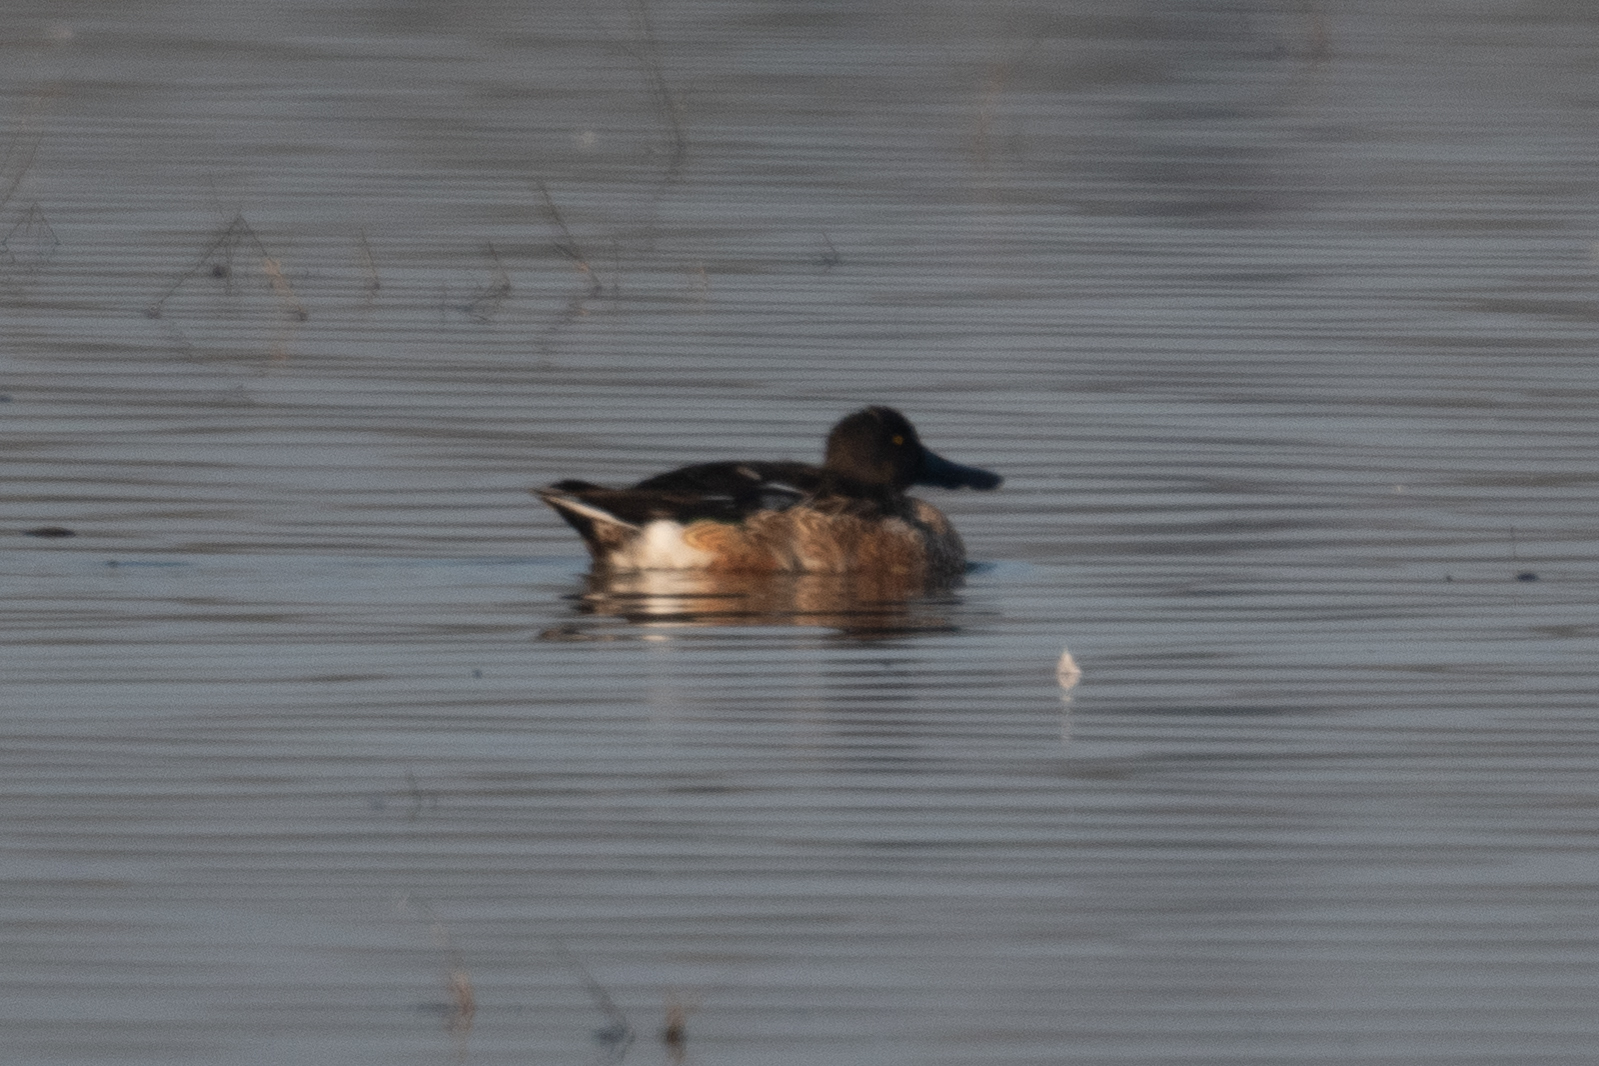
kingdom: Animalia
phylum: Chordata
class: Aves
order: Anseriformes
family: Anatidae
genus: Spatula
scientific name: Spatula clypeata
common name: Northern shoveler
